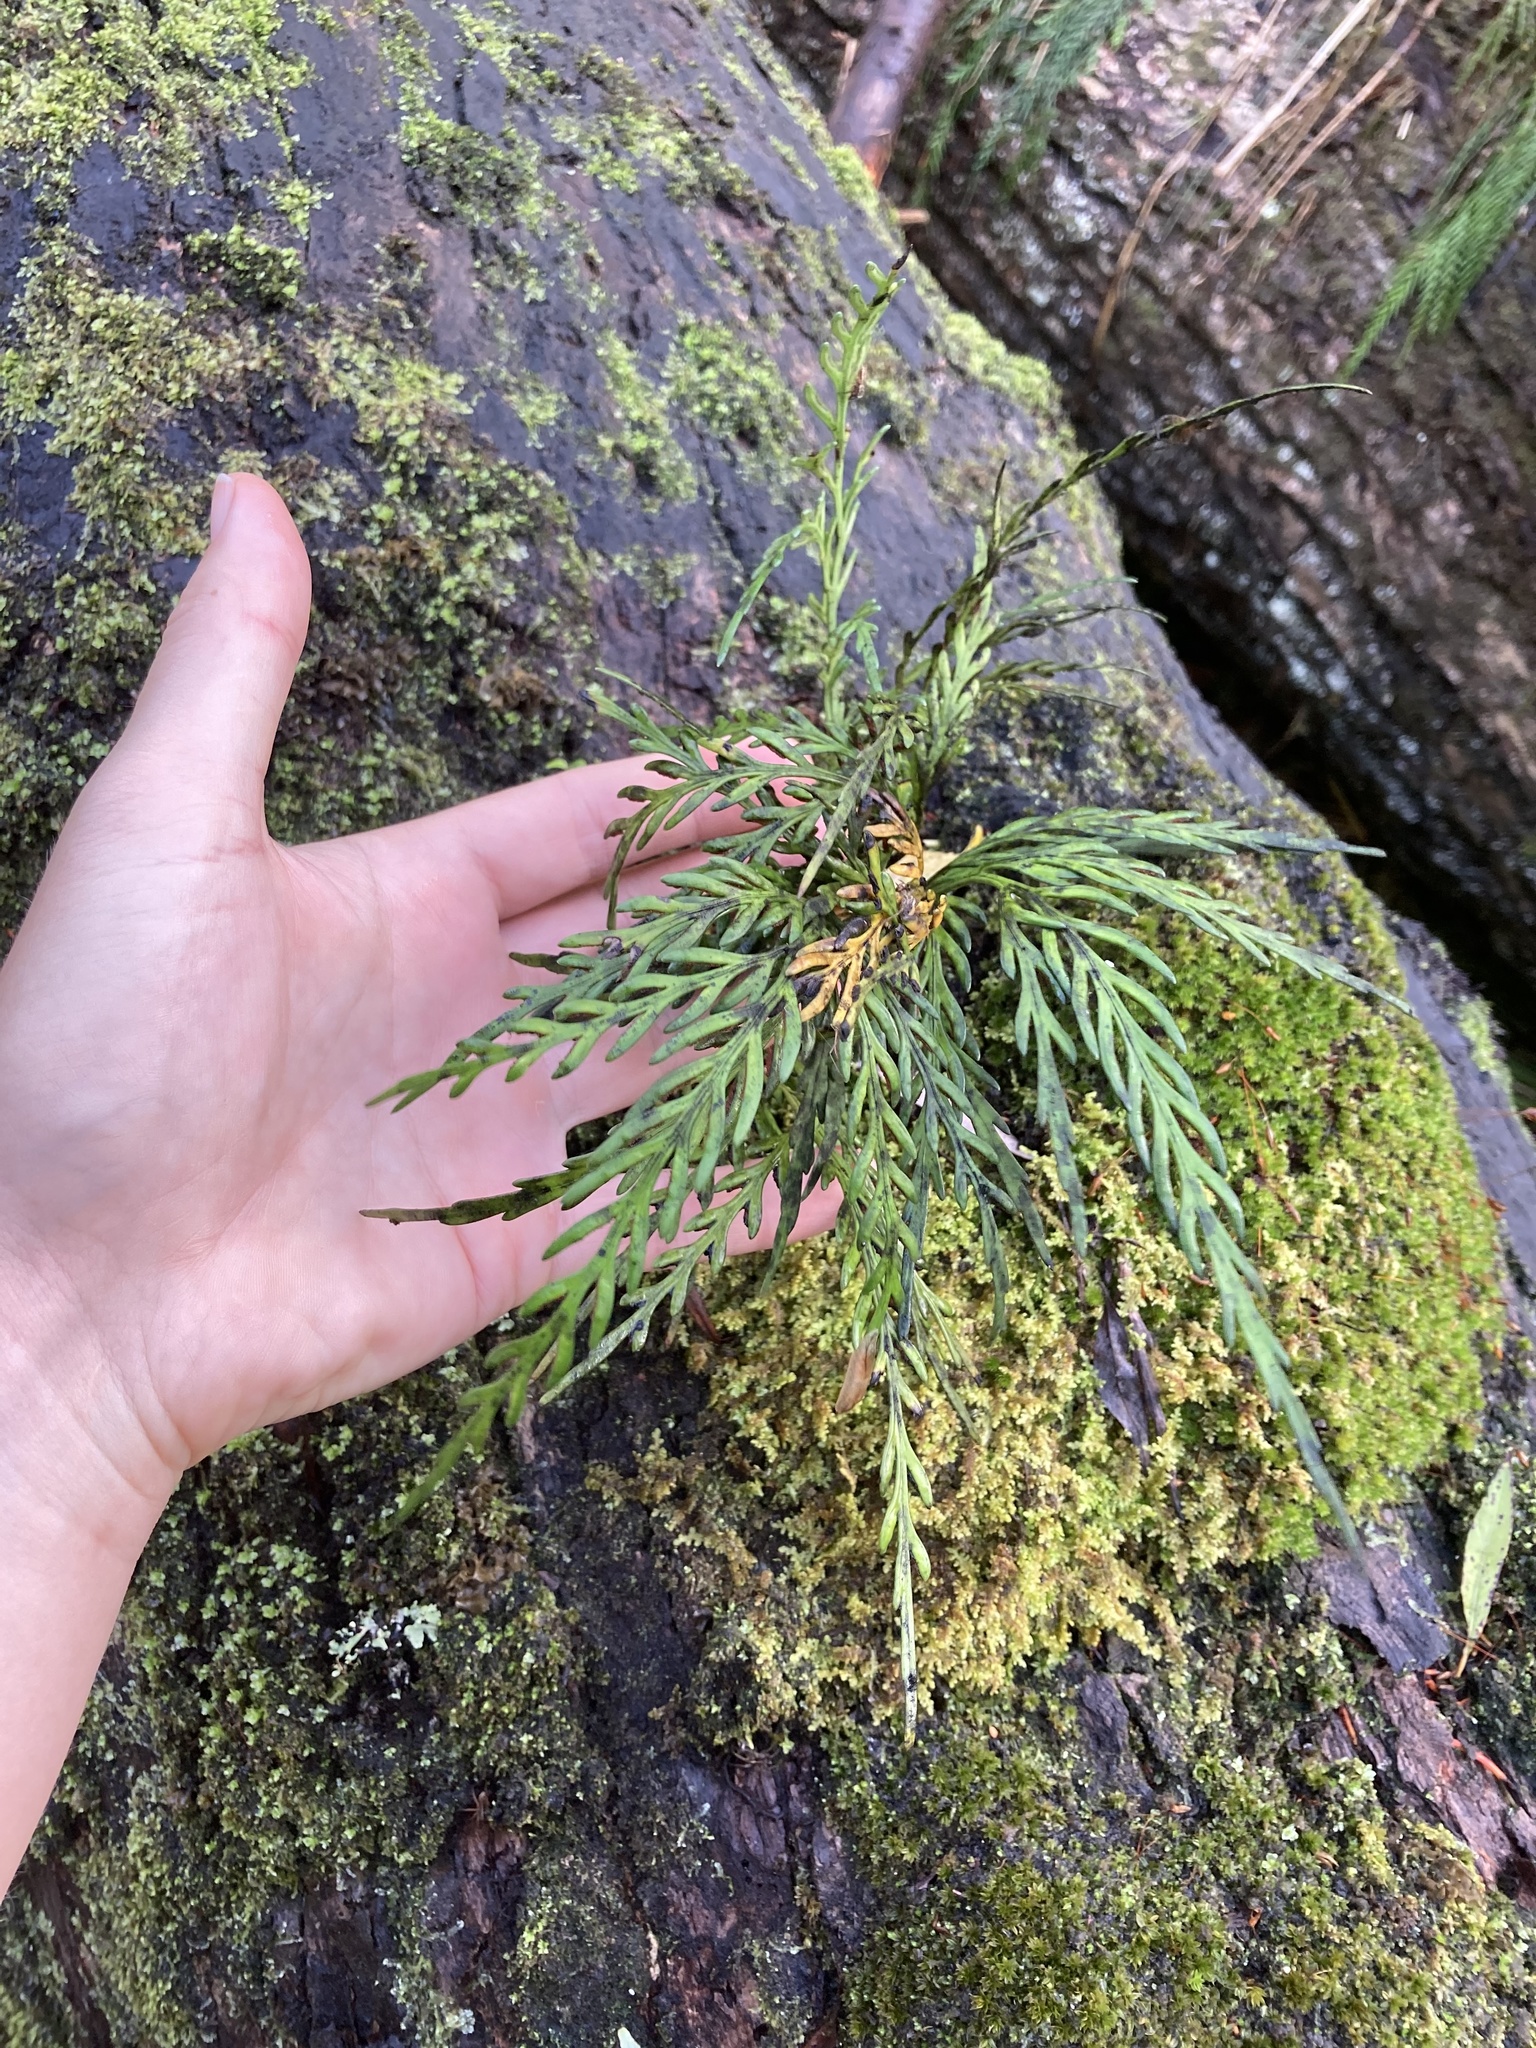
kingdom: Plantae
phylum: Tracheophyta
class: Polypodiopsida
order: Polypodiales
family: Aspleniaceae
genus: Asplenium
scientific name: Asplenium flaccidum
